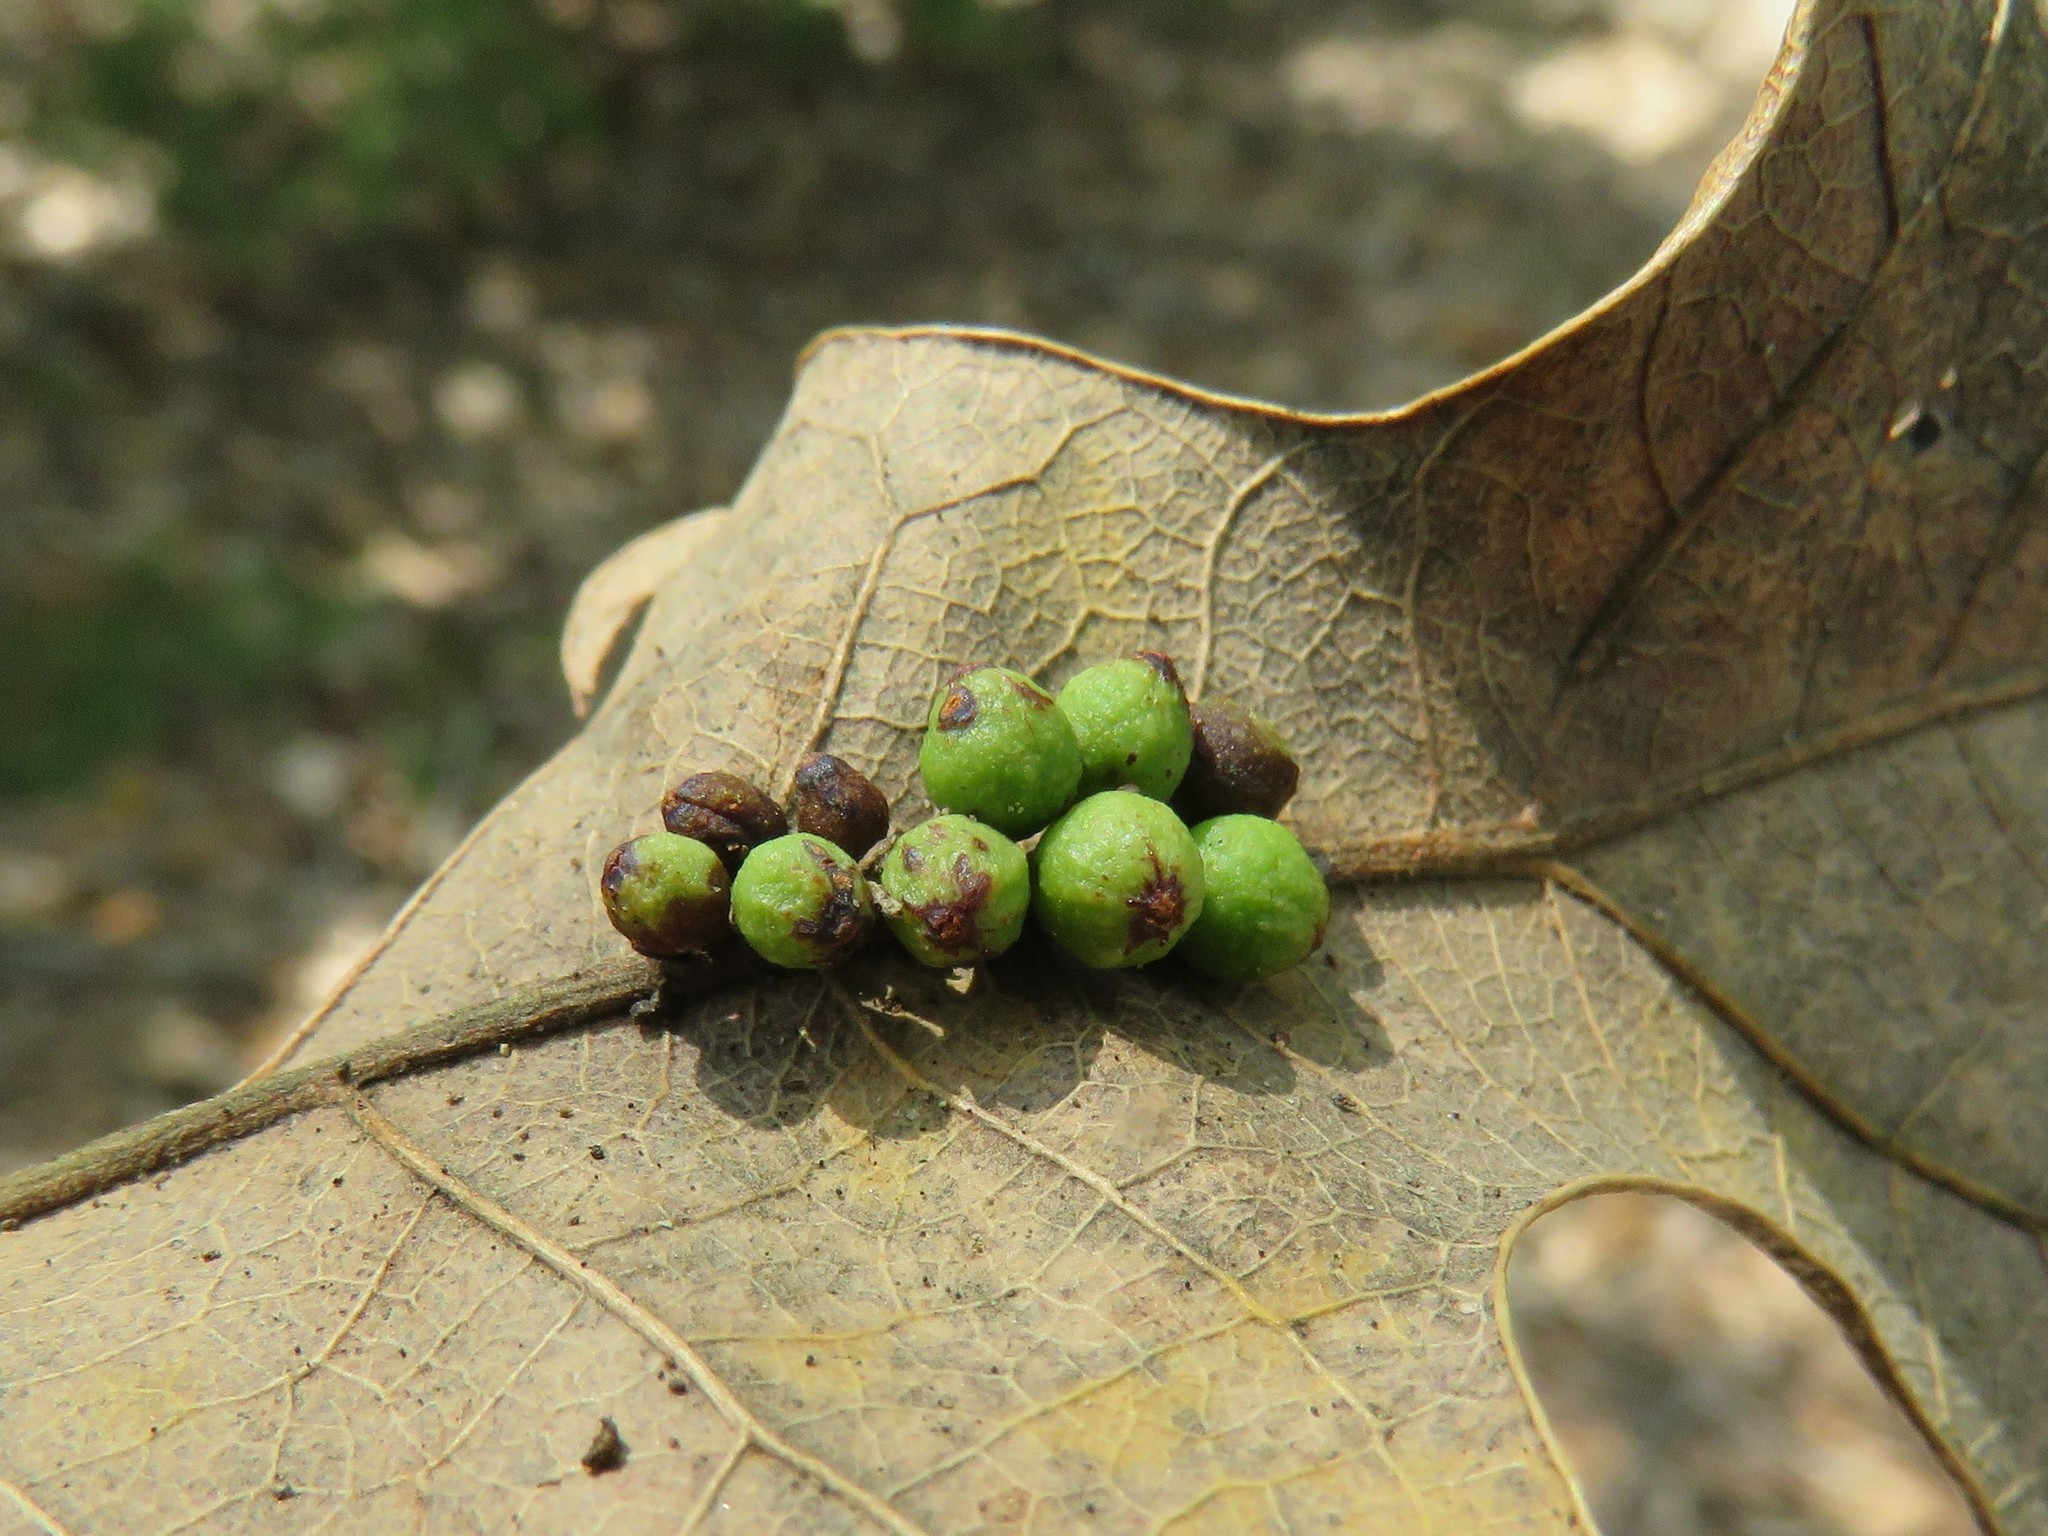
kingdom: Animalia
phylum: Arthropoda
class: Insecta
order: Hymenoptera
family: Cynipidae
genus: Andricus
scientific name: Andricus
